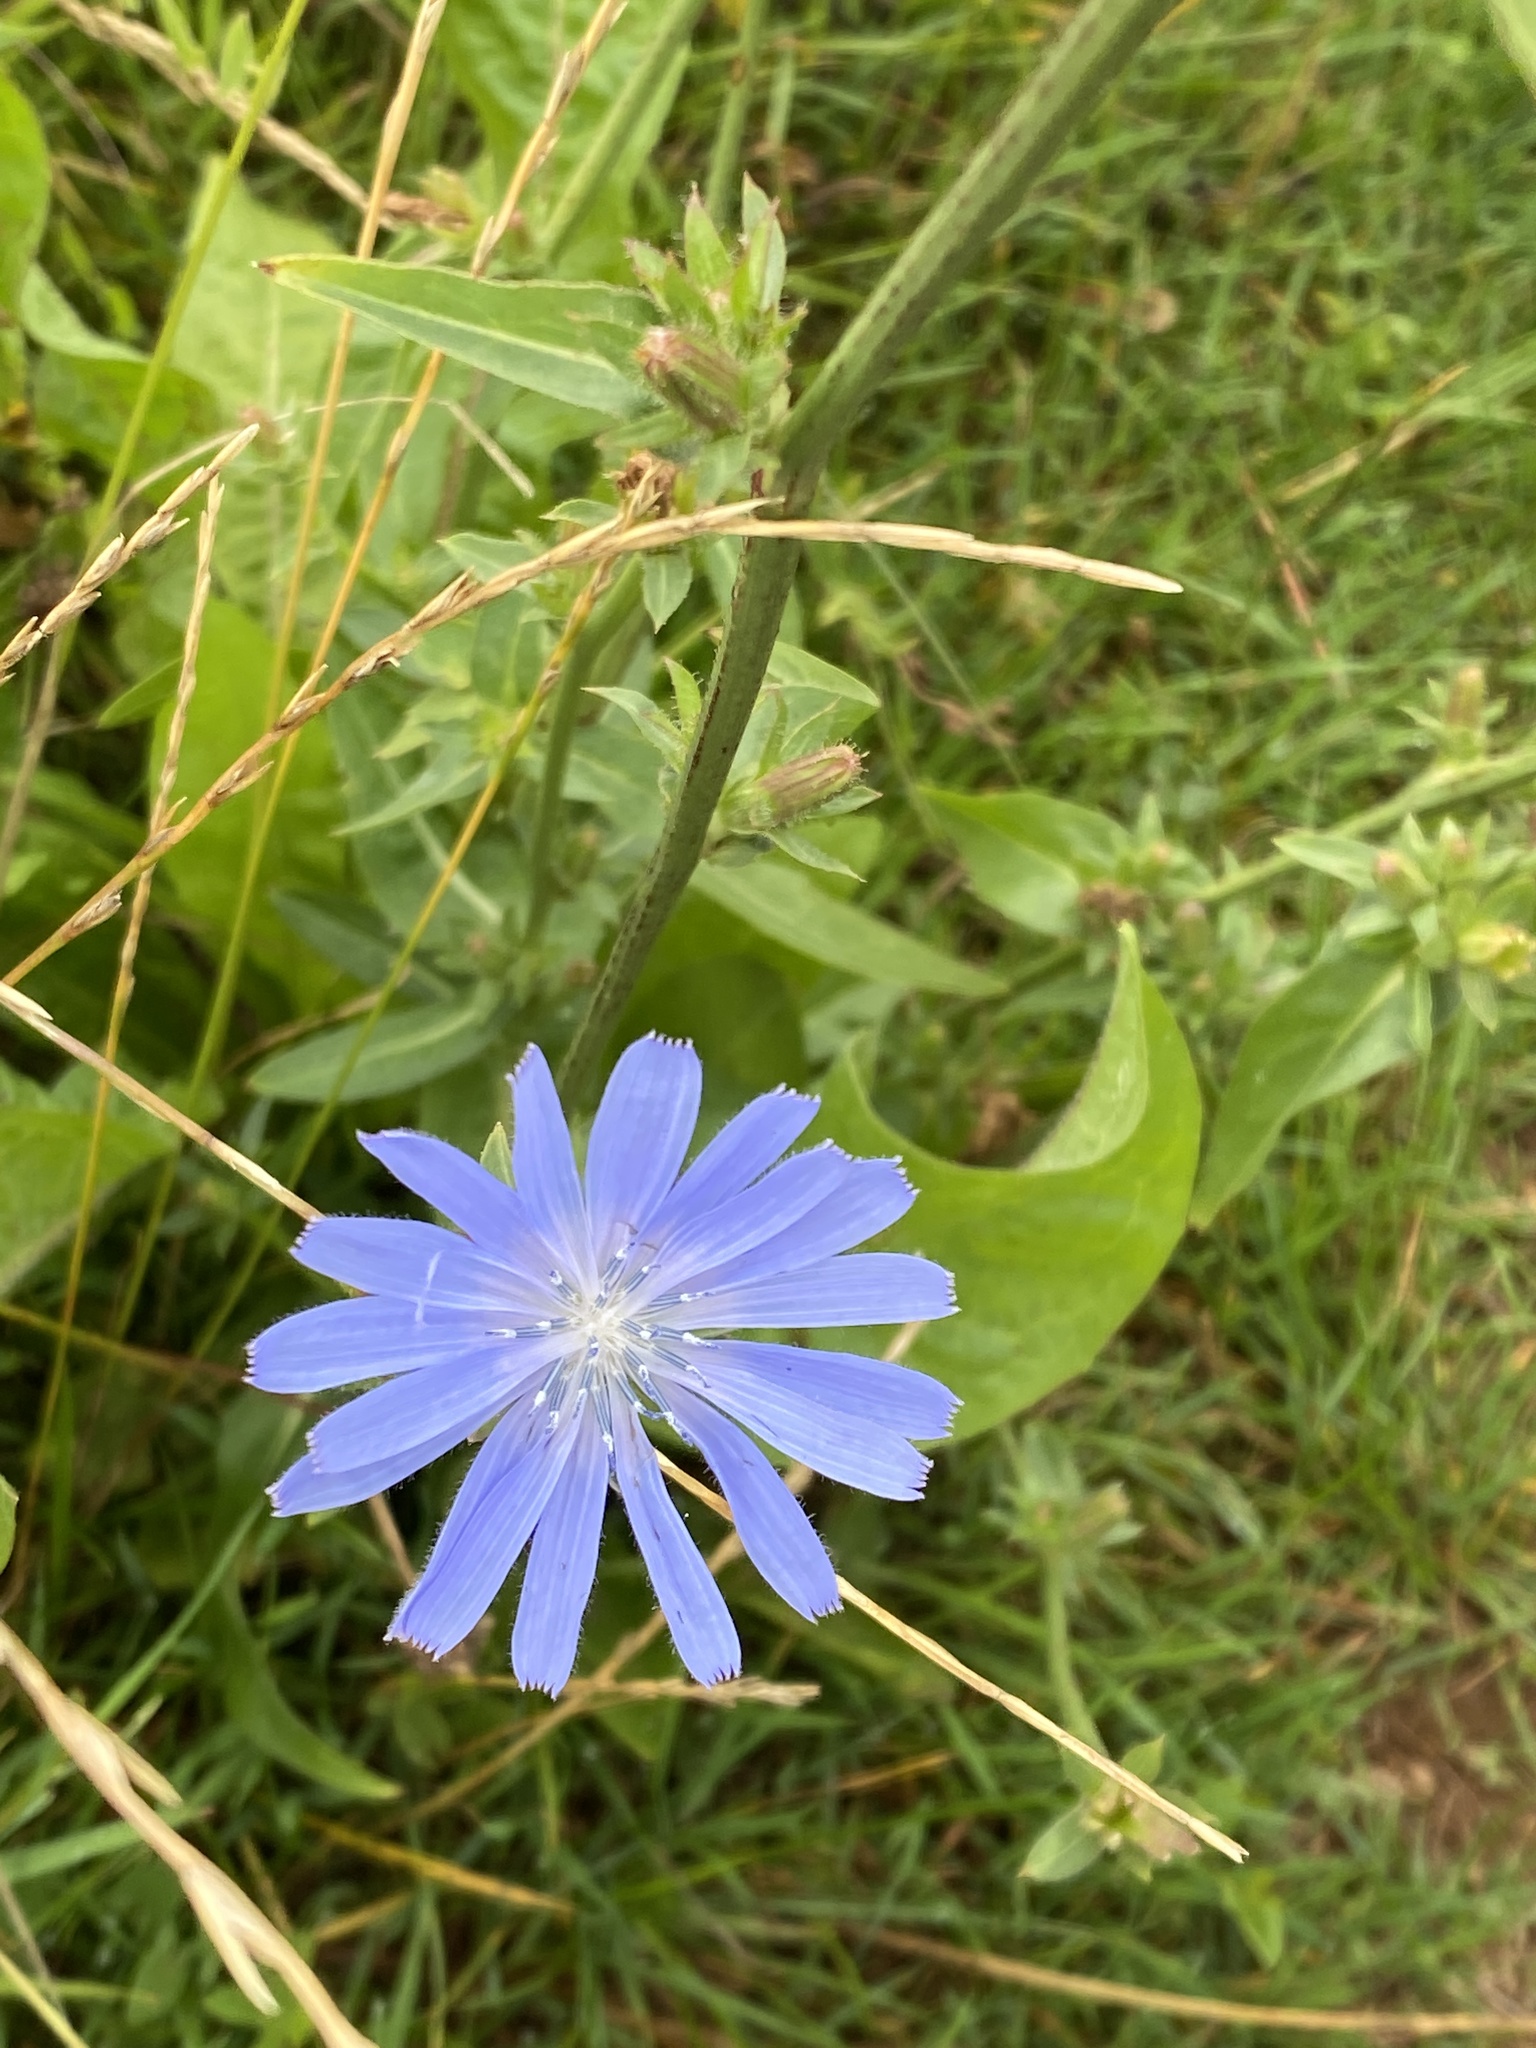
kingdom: Plantae
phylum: Tracheophyta
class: Magnoliopsida
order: Asterales
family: Asteraceae
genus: Cichorium
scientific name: Cichorium intybus
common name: Chicory
